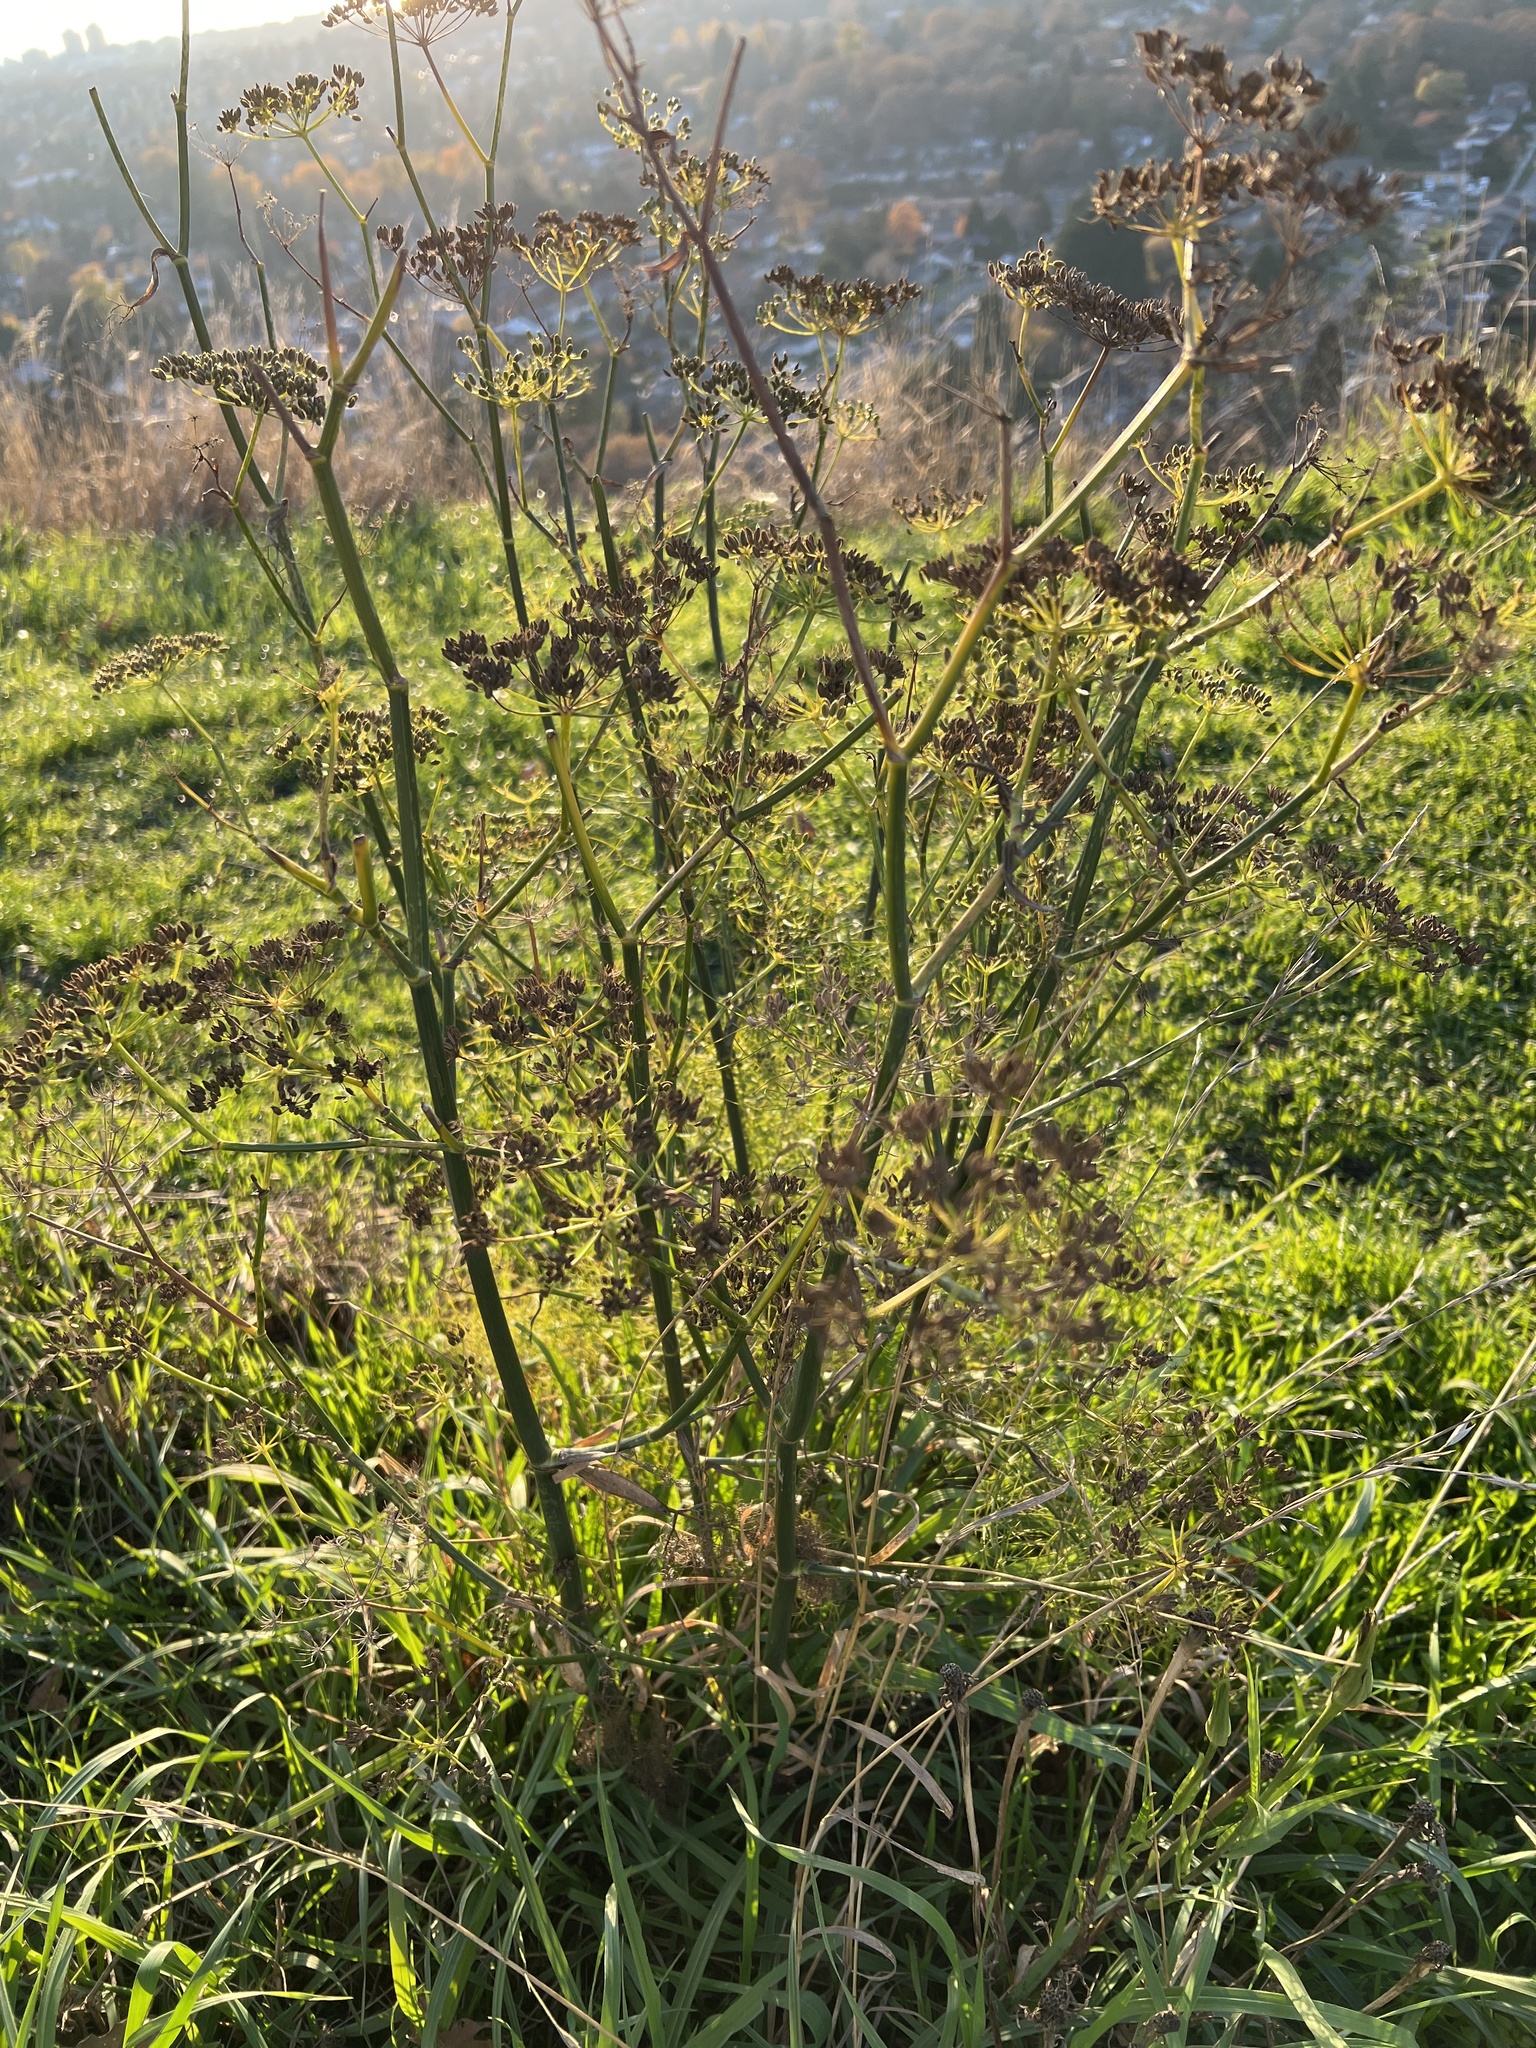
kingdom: Plantae
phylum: Tracheophyta
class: Magnoliopsida
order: Apiales
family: Apiaceae
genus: Foeniculum
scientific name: Foeniculum vulgare
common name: Fennel
